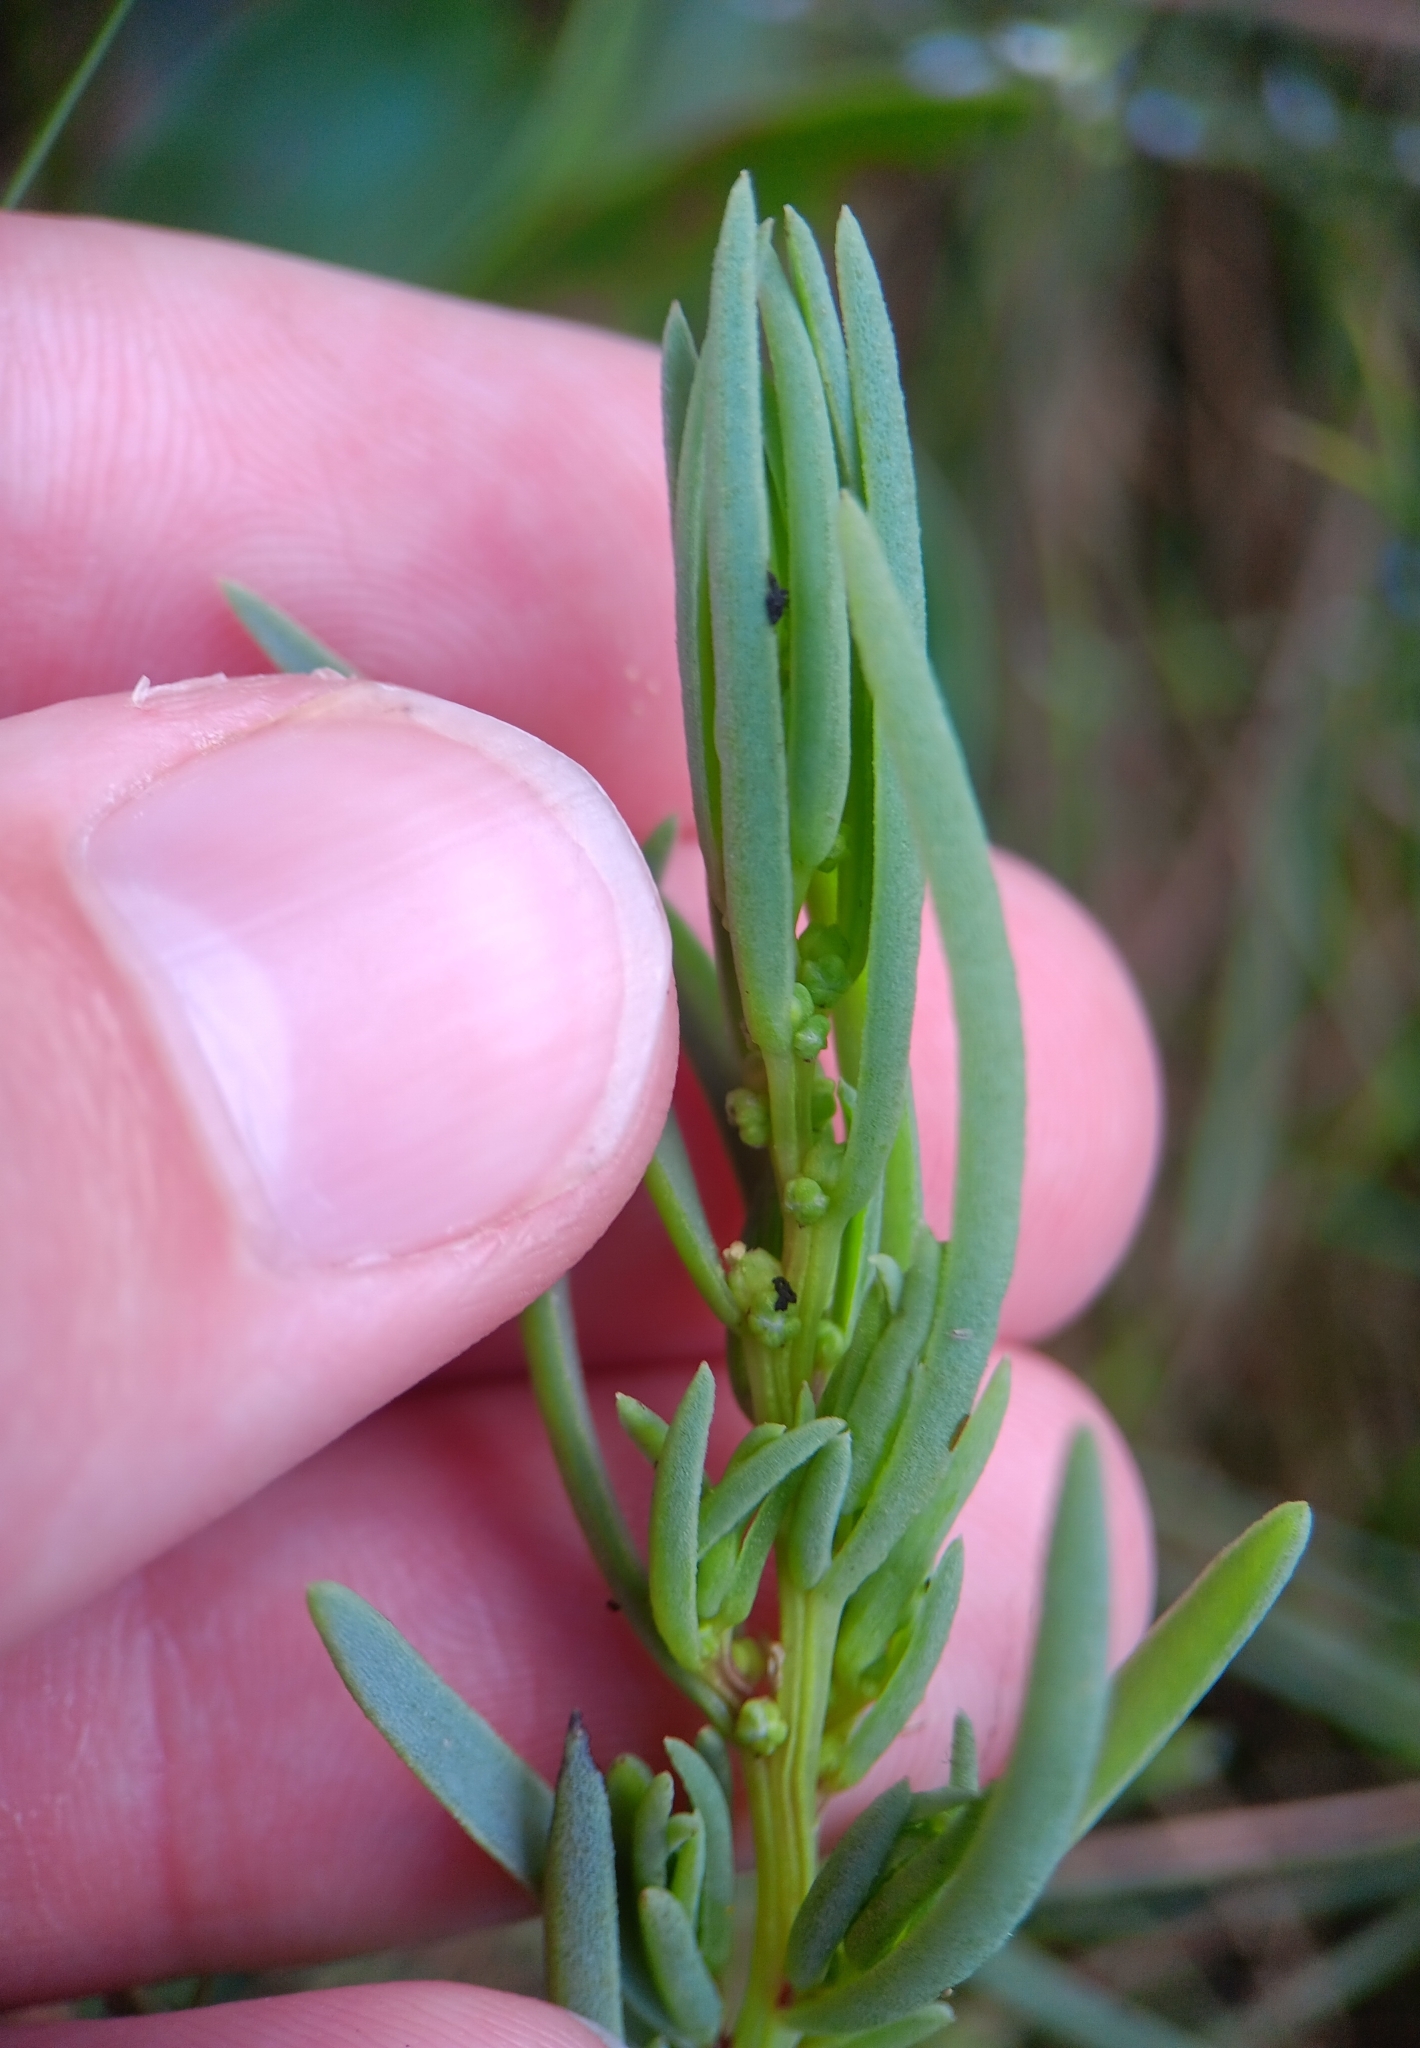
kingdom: Plantae
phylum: Tracheophyta
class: Magnoliopsida
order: Caryophyllales
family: Amaranthaceae
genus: Suaeda
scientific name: Suaeda maritima
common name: Annual sea-blite
